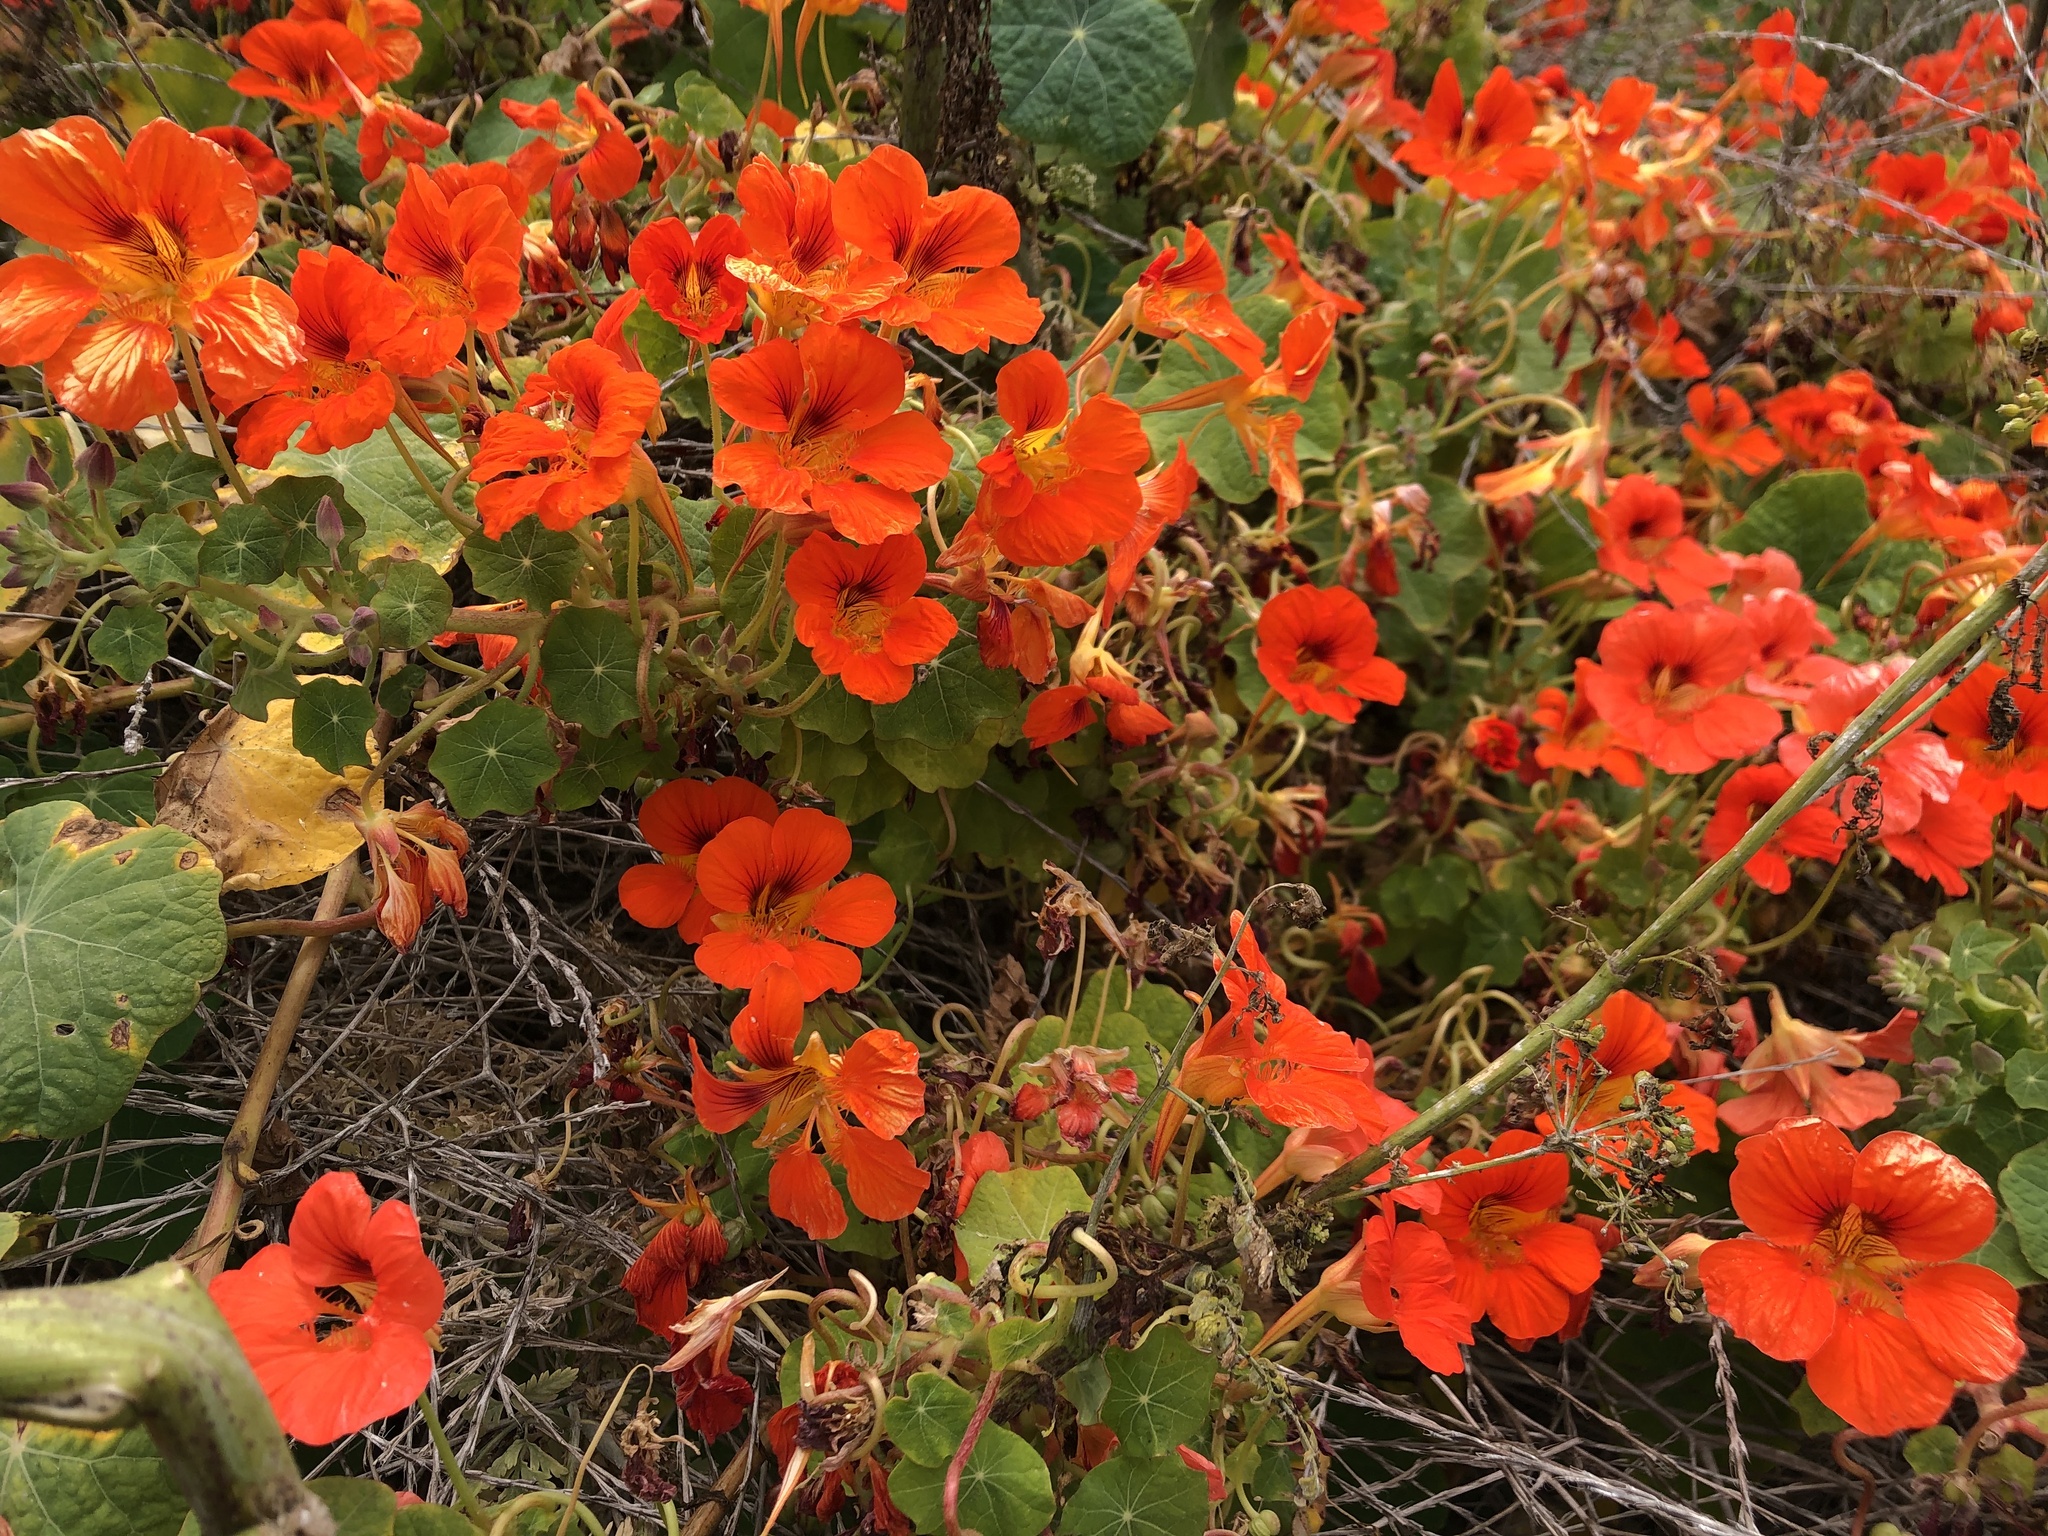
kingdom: Plantae
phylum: Tracheophyta
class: Magnoliopsida
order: Brassicales
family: Tropaeolaceae
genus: Tropaeolum
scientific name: Tropaeolum majus
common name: Nasturtium
